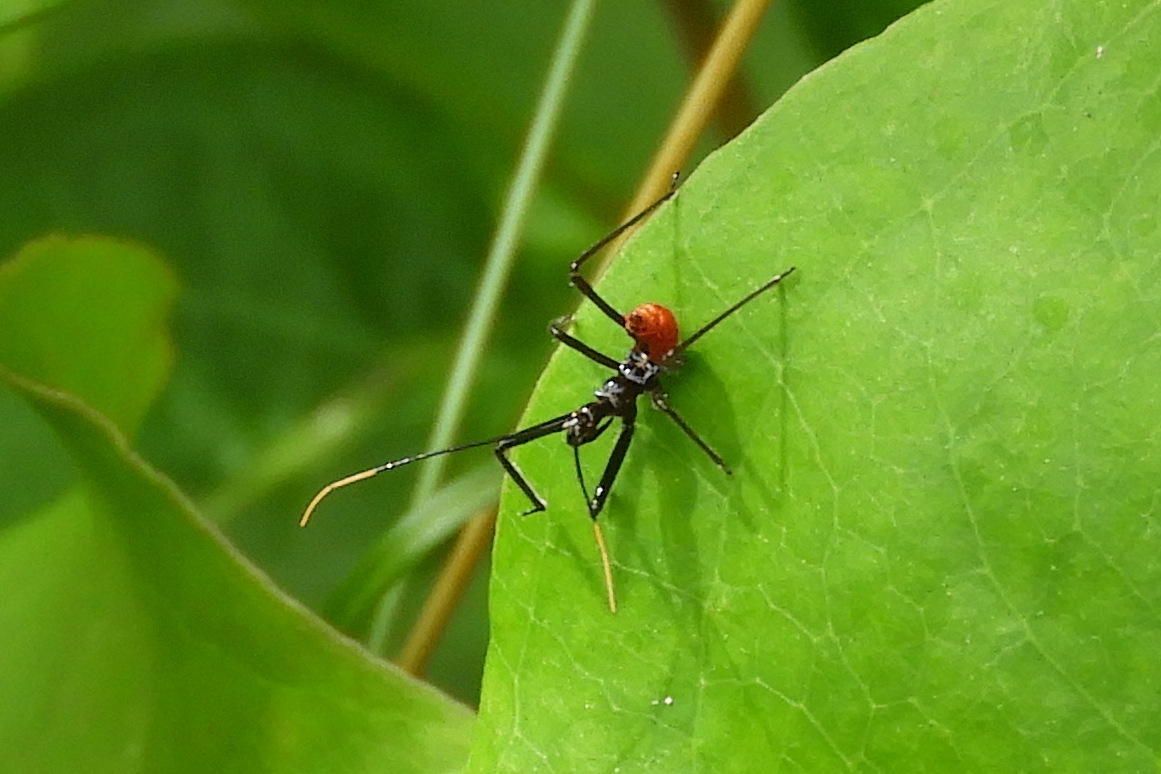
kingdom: Animalia
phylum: Arthropoda
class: Insecta
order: Hemiptera
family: Reduviidae
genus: Arilus
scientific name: Arilus cristatus
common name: North american wheel bug
